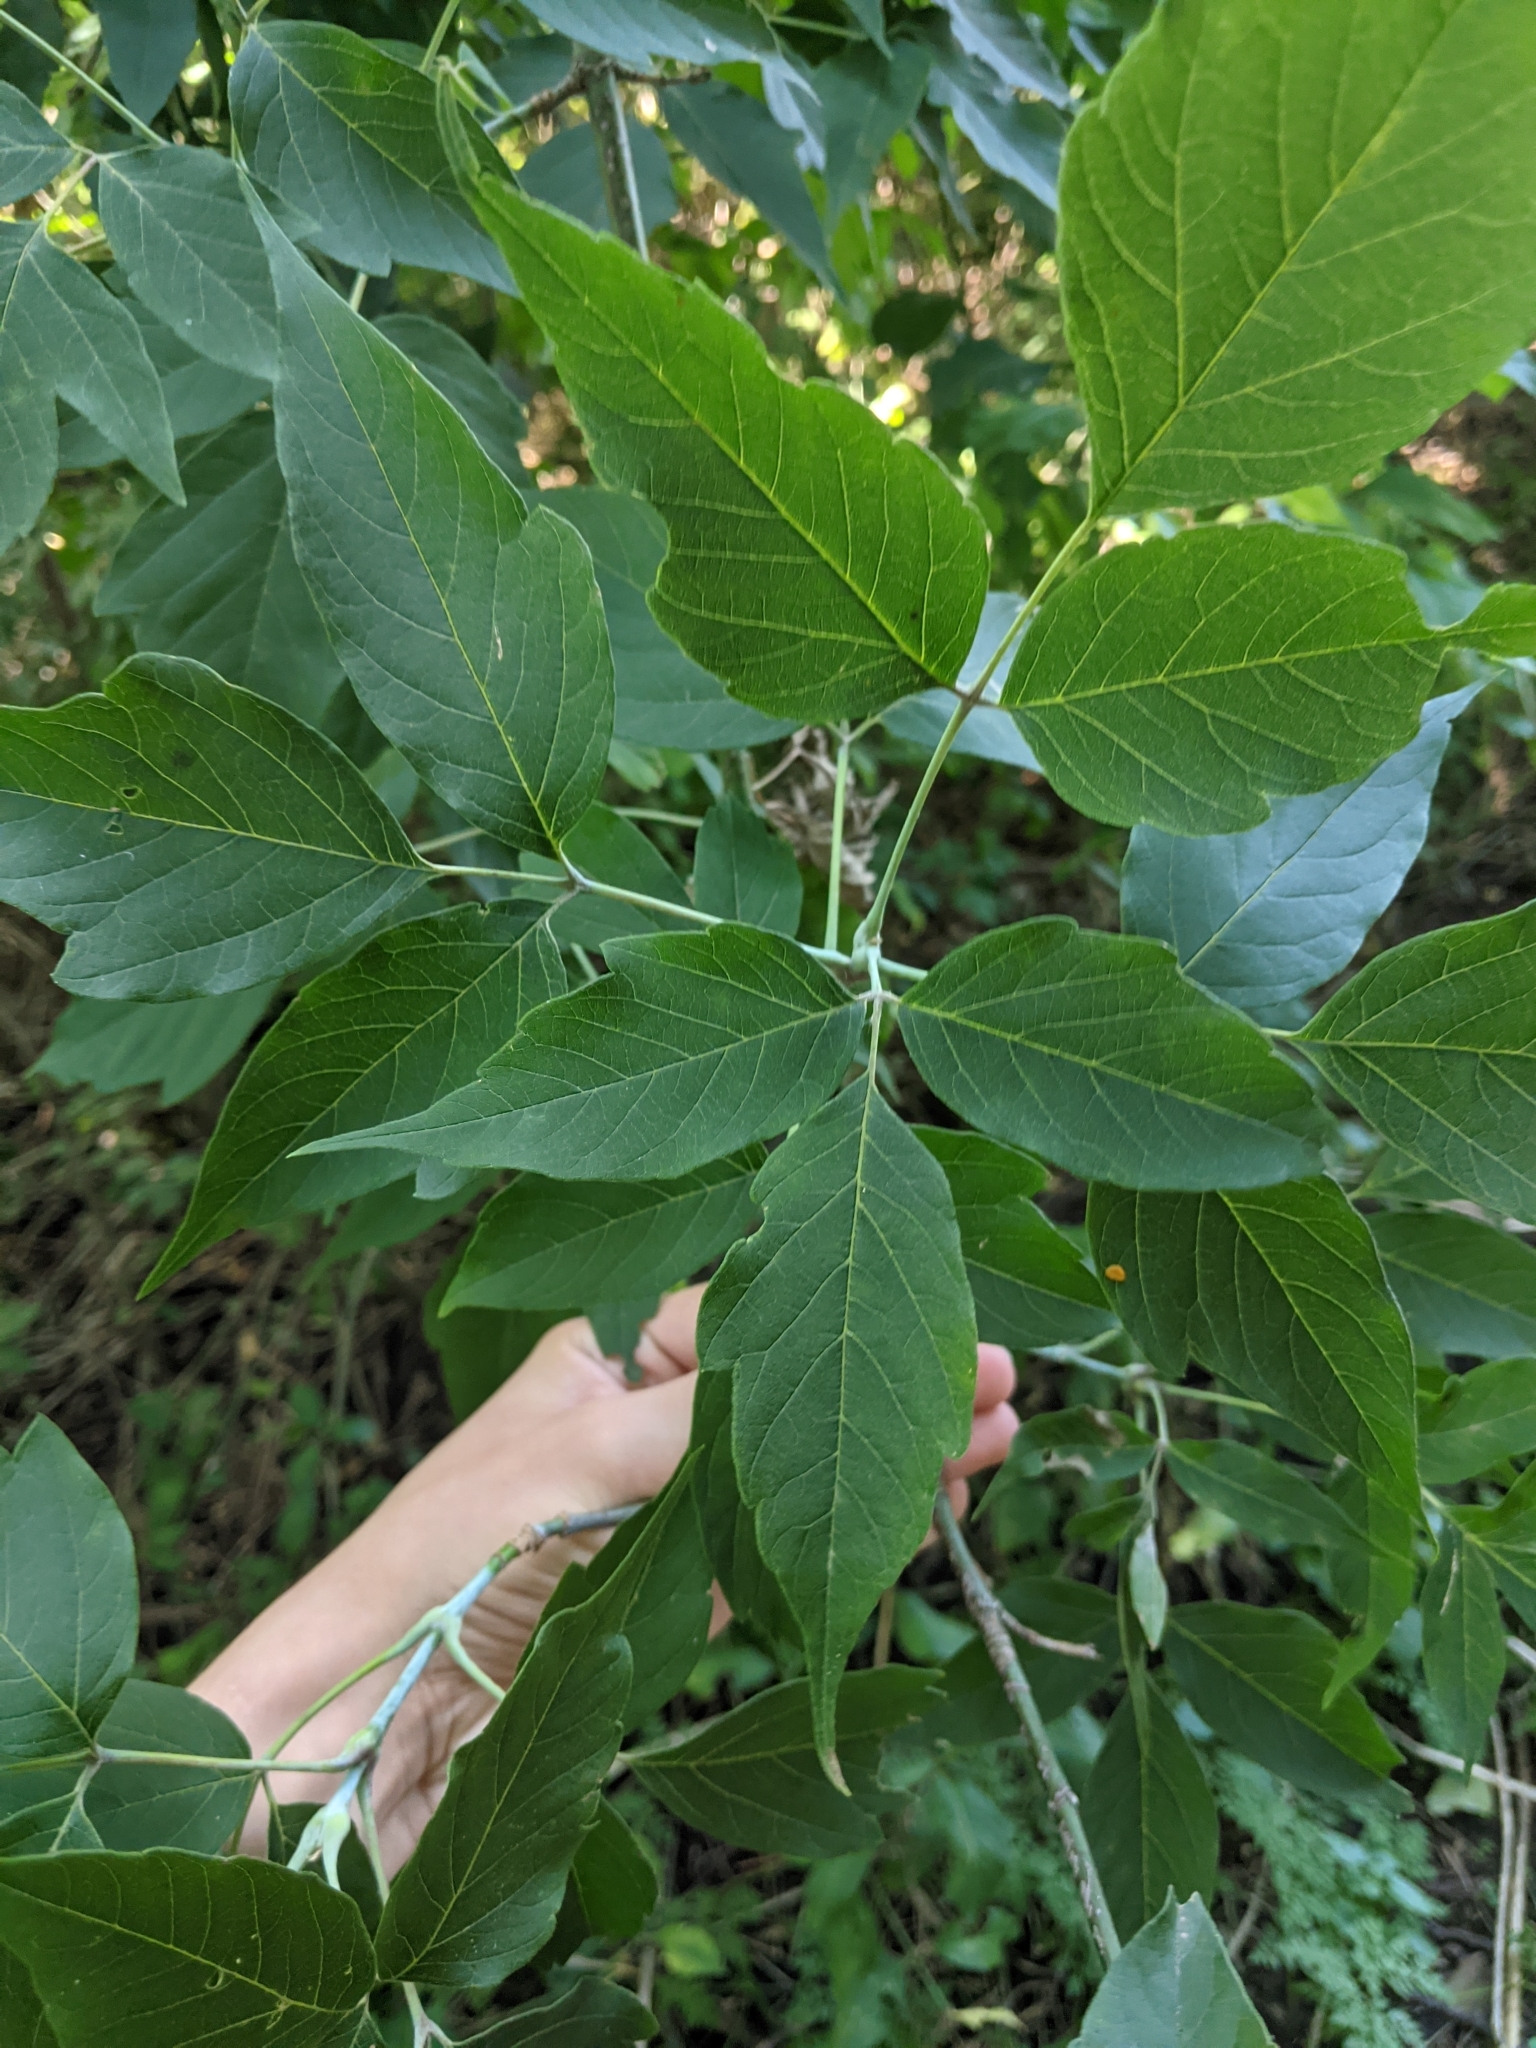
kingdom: Plantae
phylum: Tracheophyta
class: Magnoliopsida
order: Sapindales
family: Sapindaceae
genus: Acer
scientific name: Acer negundo
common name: Ashleaf maple
